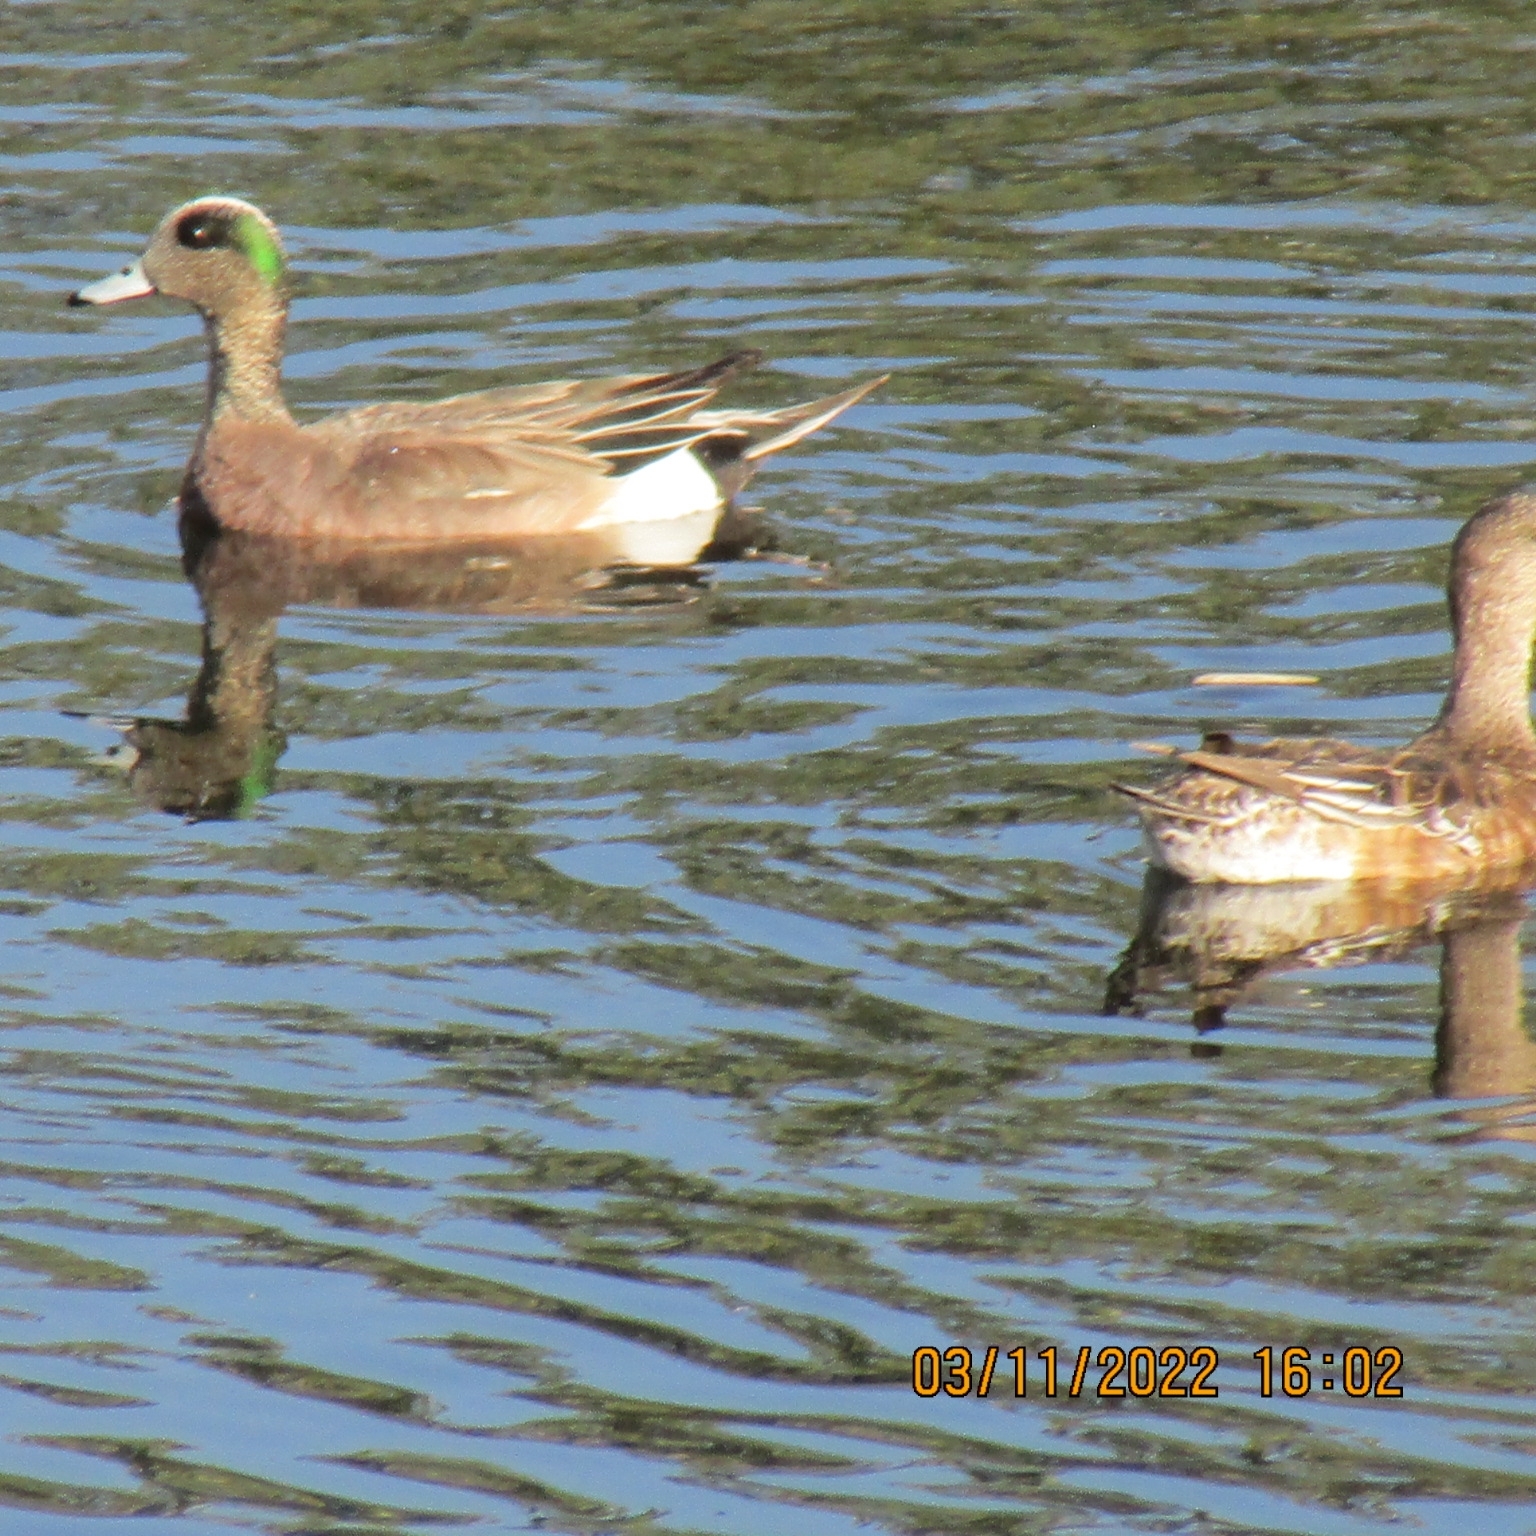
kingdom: Animalia
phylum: Chordata
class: Aves
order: Anseriformes
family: Anatidae
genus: Mareca
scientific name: Mareca americana
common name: American wigeon
